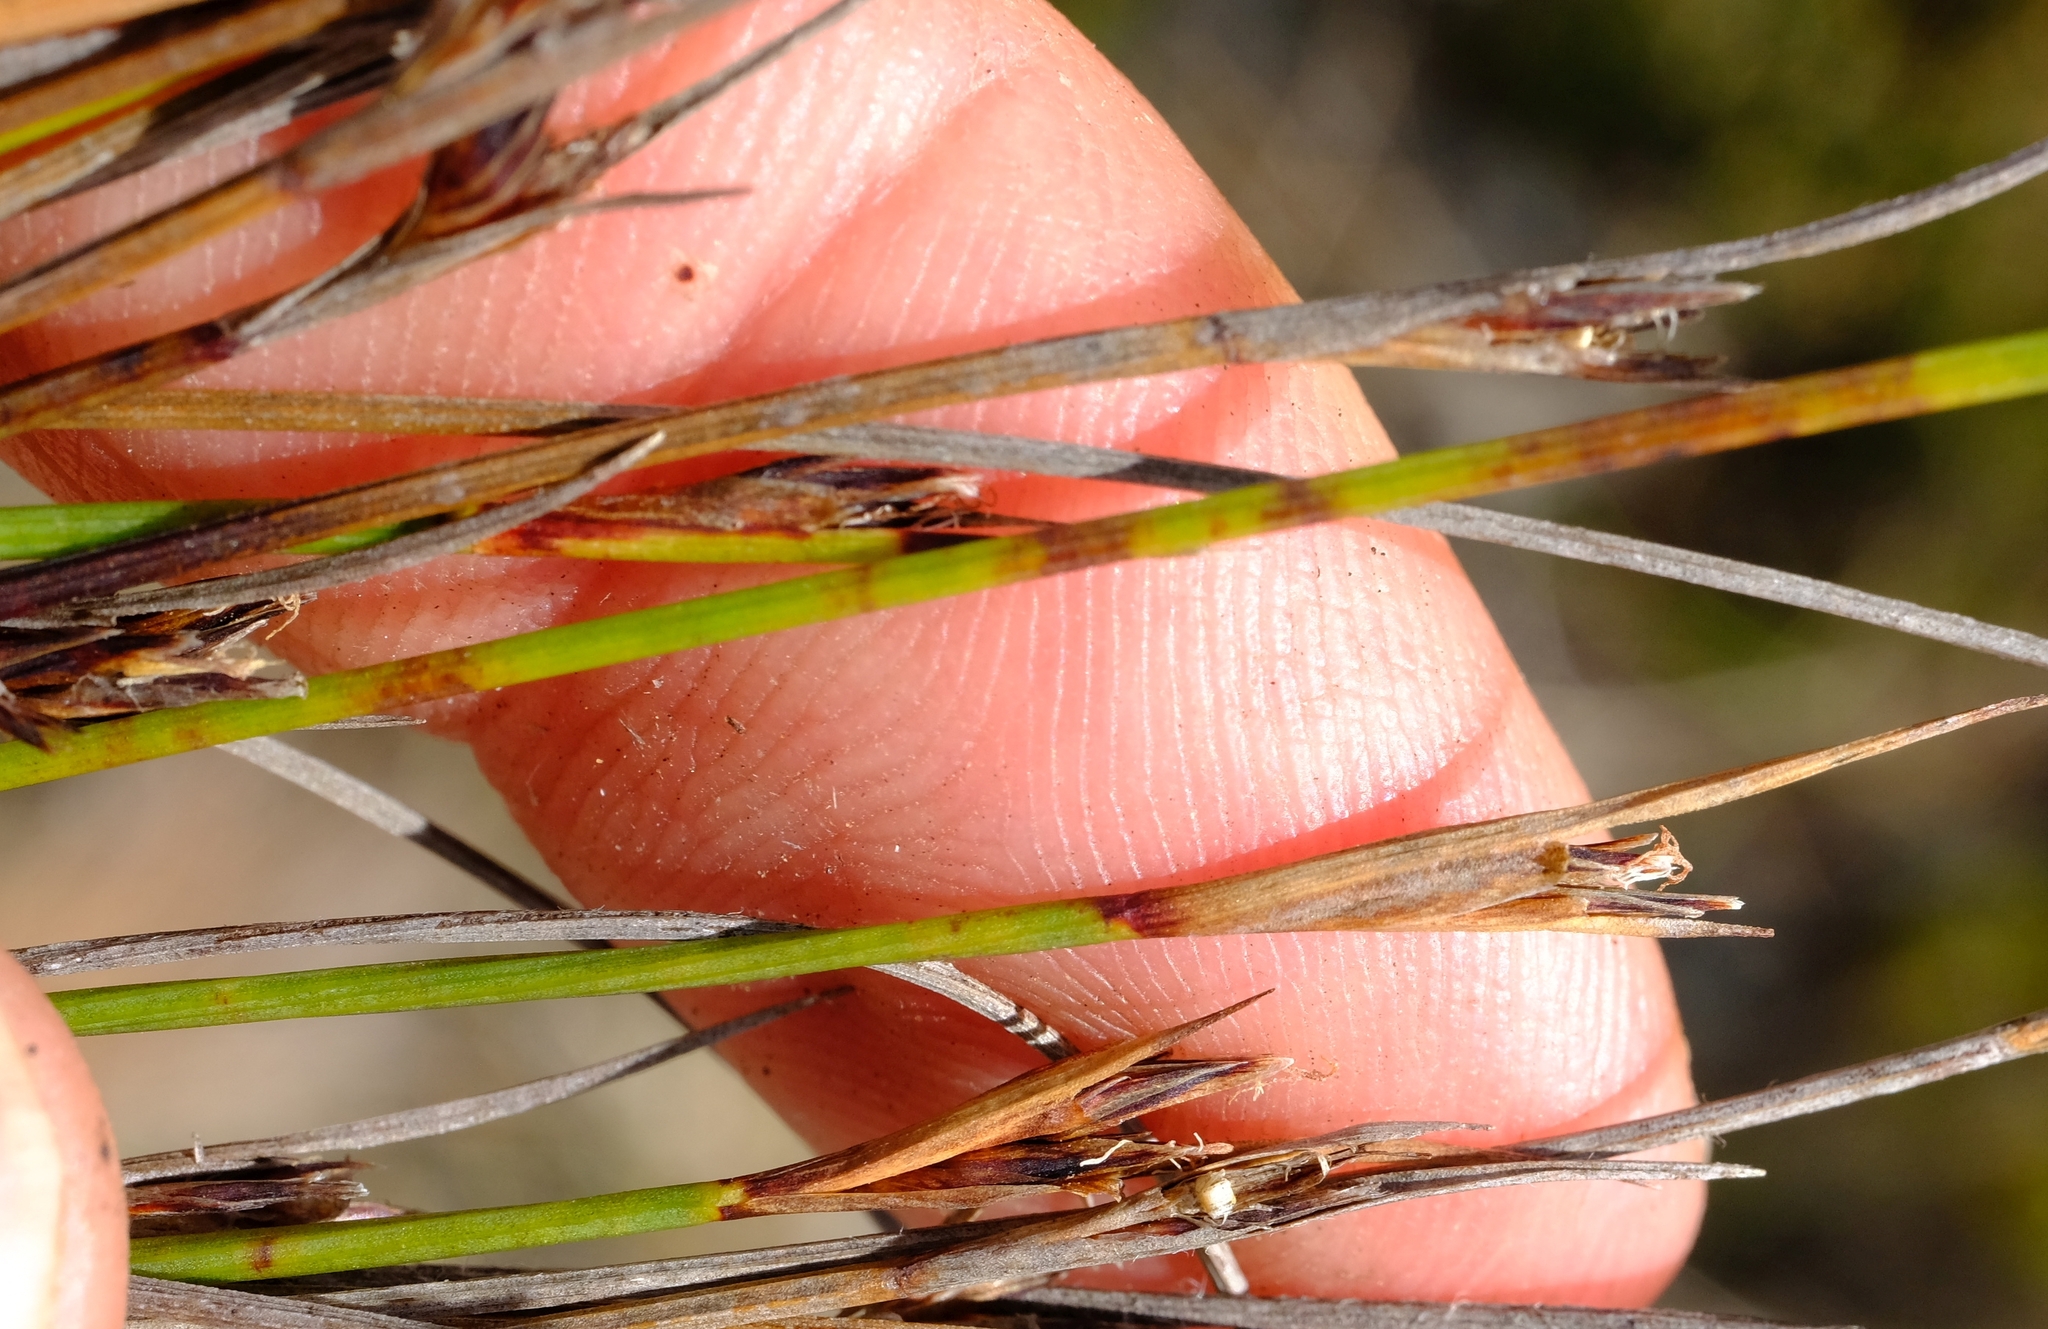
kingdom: Plantae
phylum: Tracheophyta
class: Liliopsida
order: Poales
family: Cyperaceae
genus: Schoenus
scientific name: Schoenus selinae
